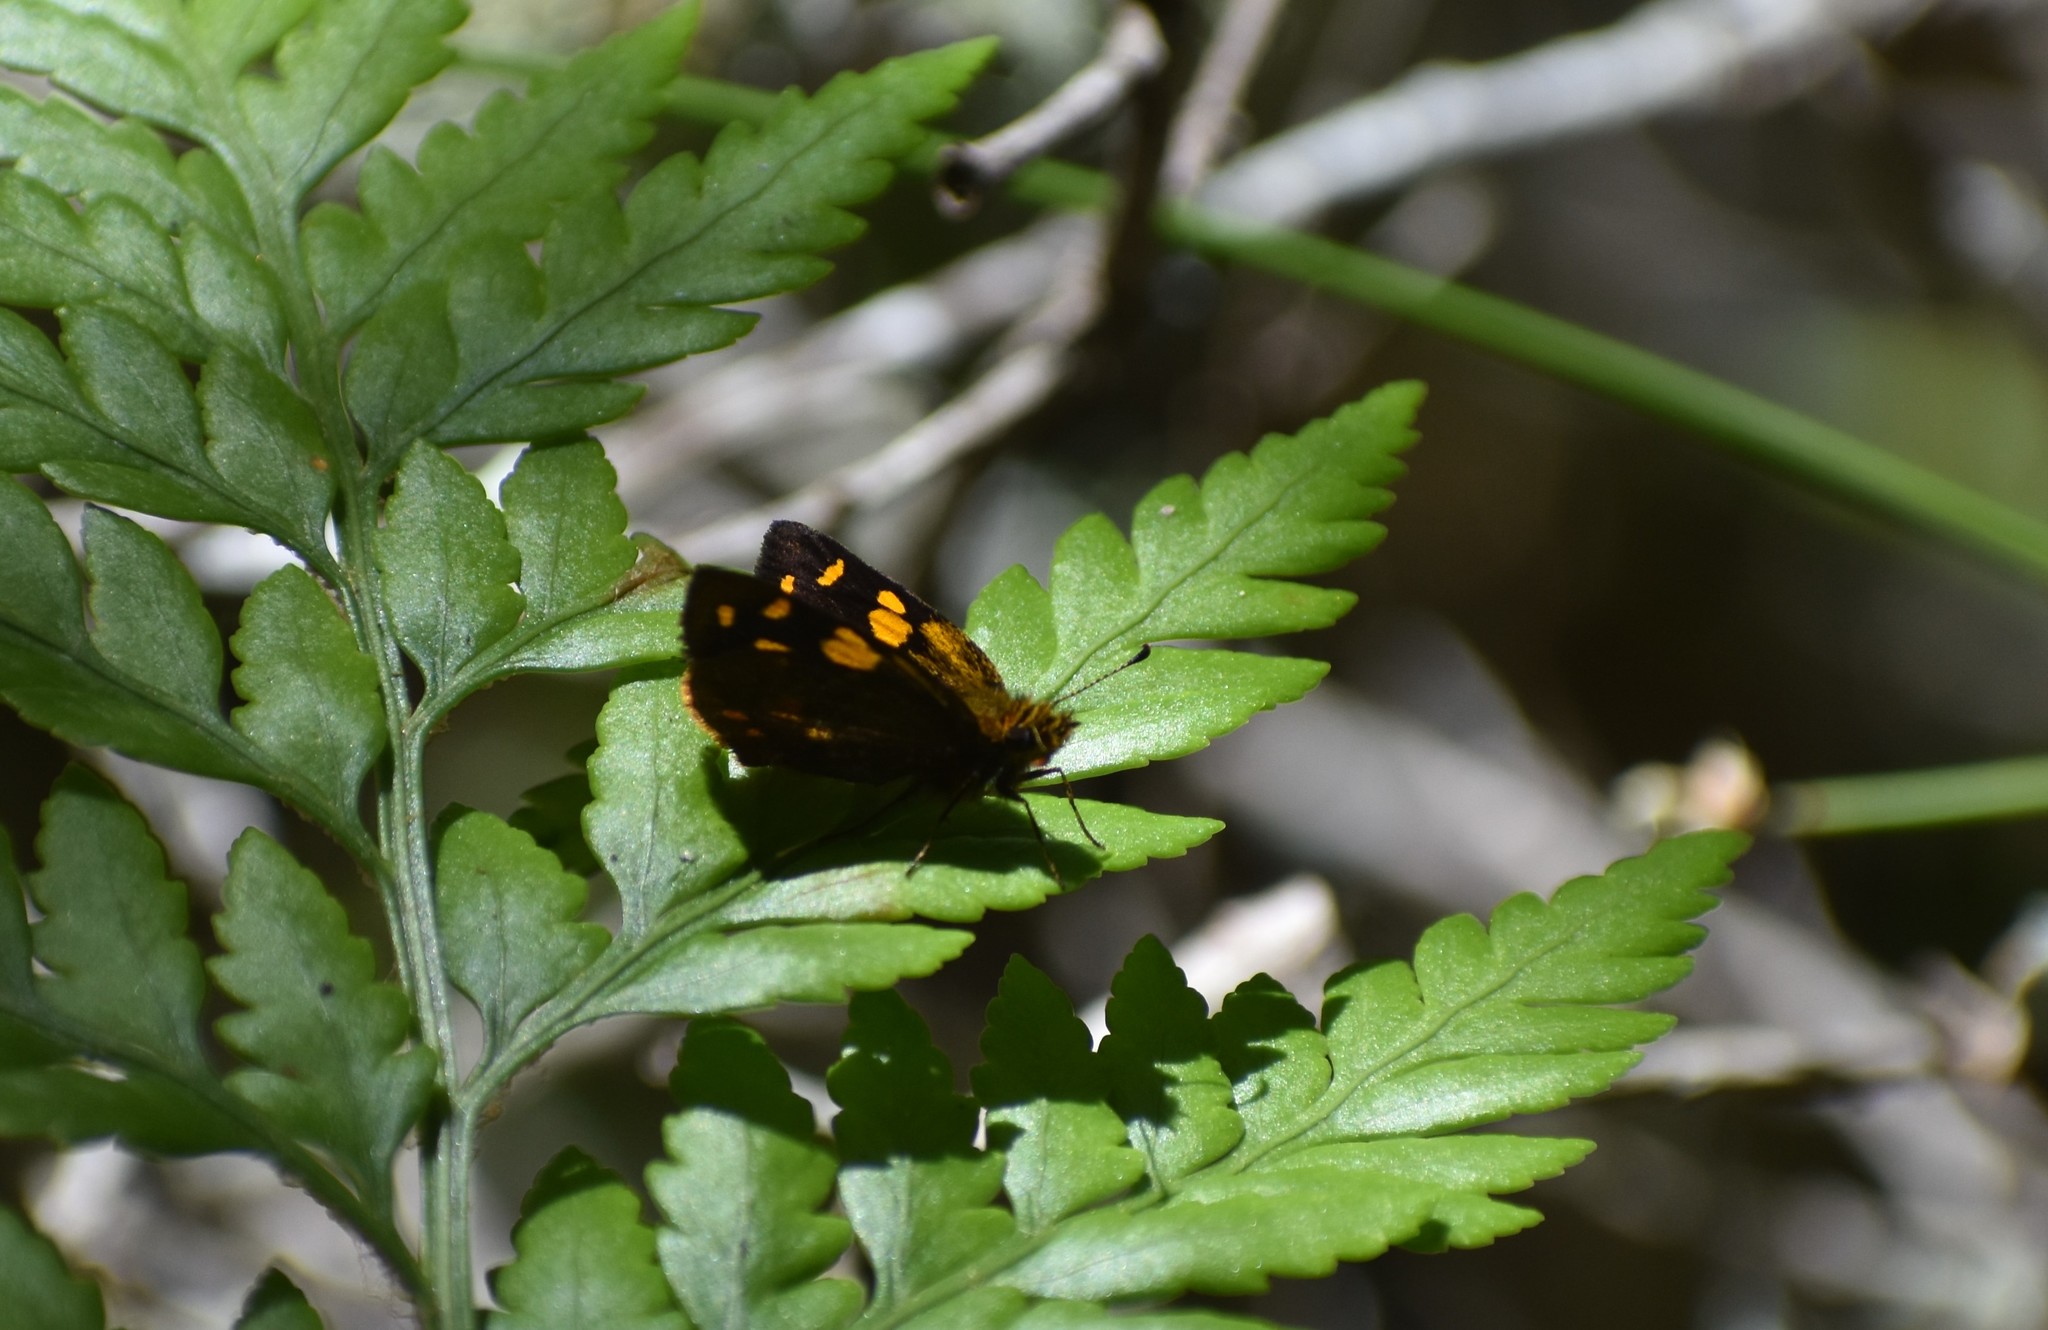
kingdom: Animalia
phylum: Arthropoda
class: Insecta
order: Lepidoptera
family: Hesperiidae
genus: Metisella
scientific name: Metisella metis
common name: Western gold-spotted sylph
